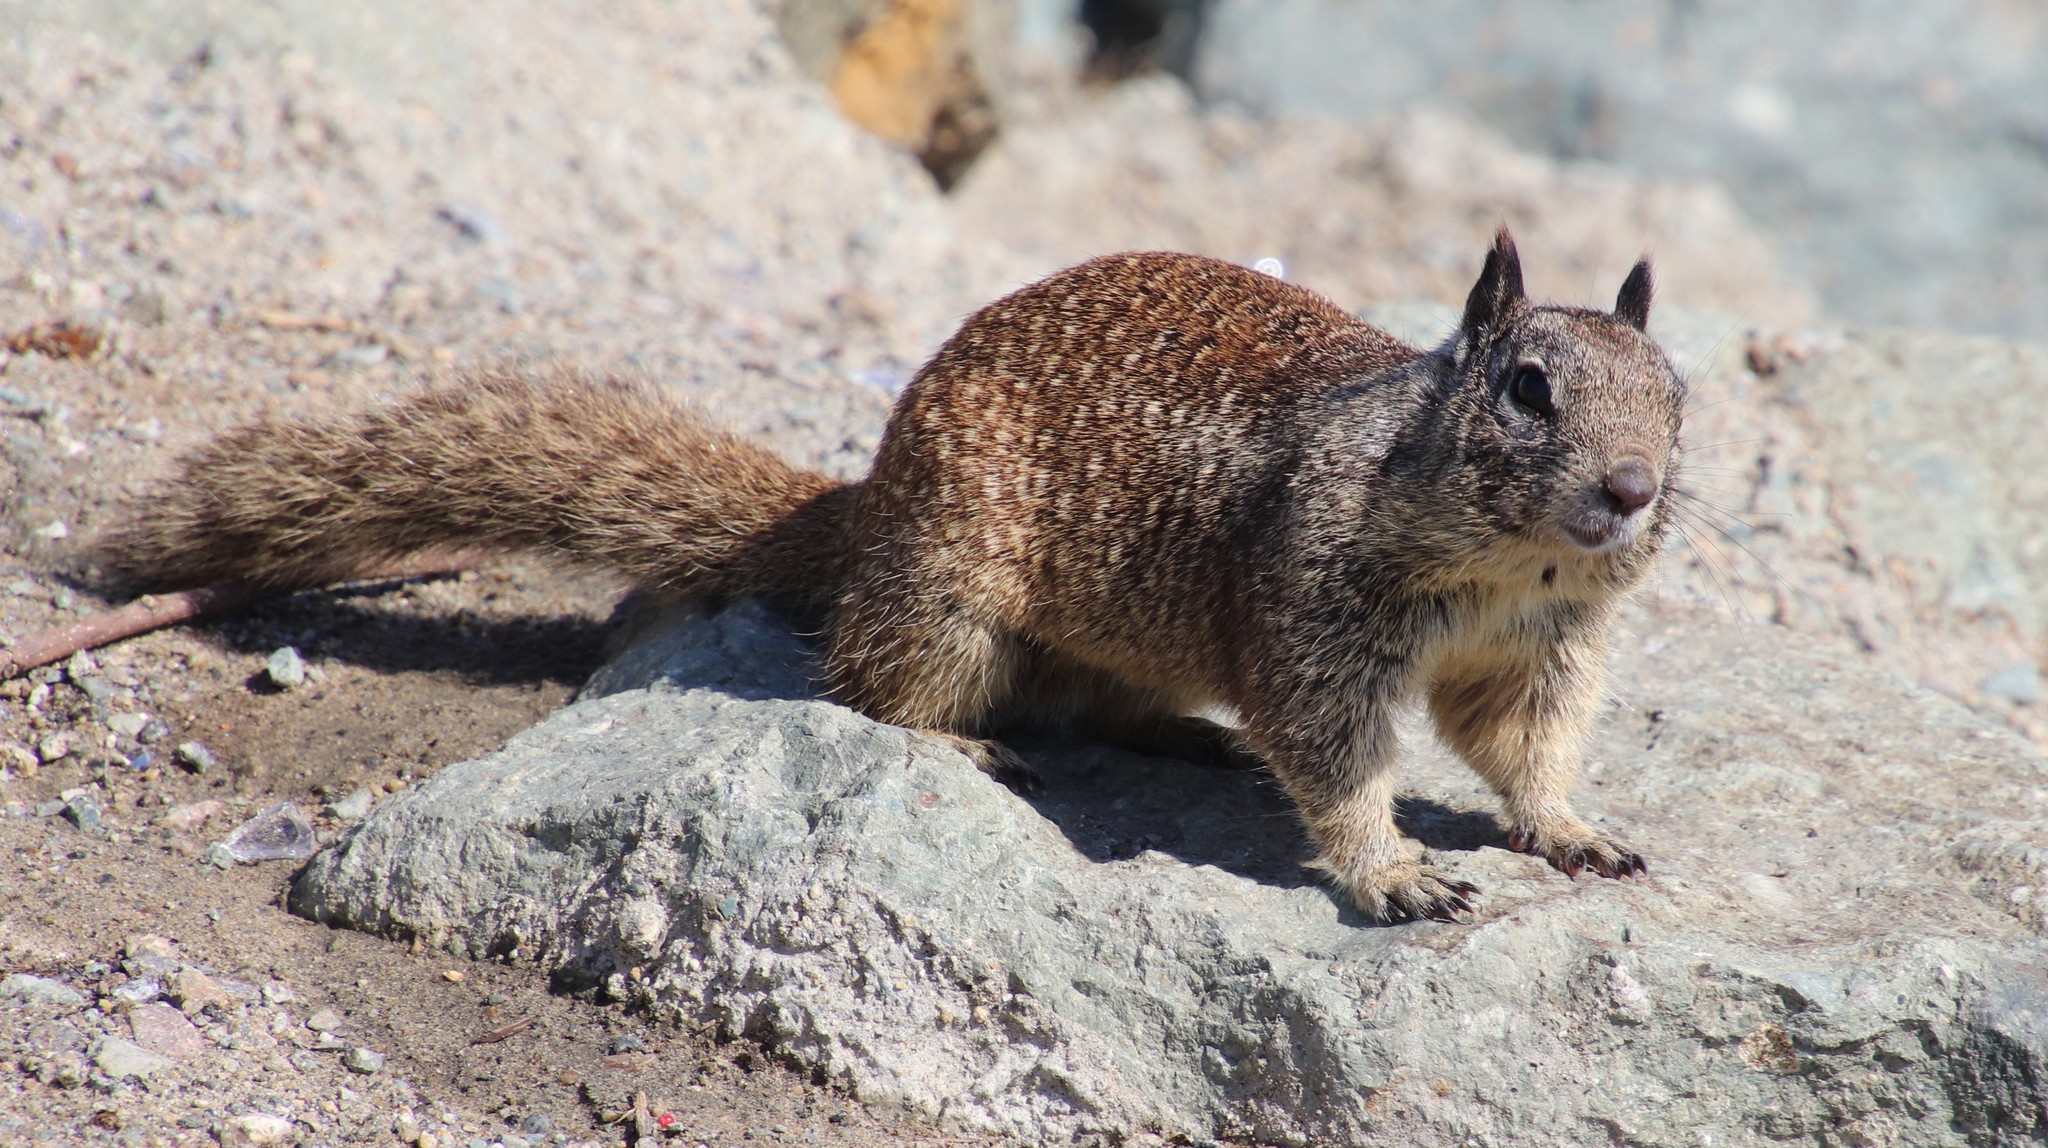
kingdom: Animalia
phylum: Chordata
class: Mammalia
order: Rodentia
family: Sciuridae
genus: Otospermophilus
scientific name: Otospermophilus beecheyi
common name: California ground squirrel
